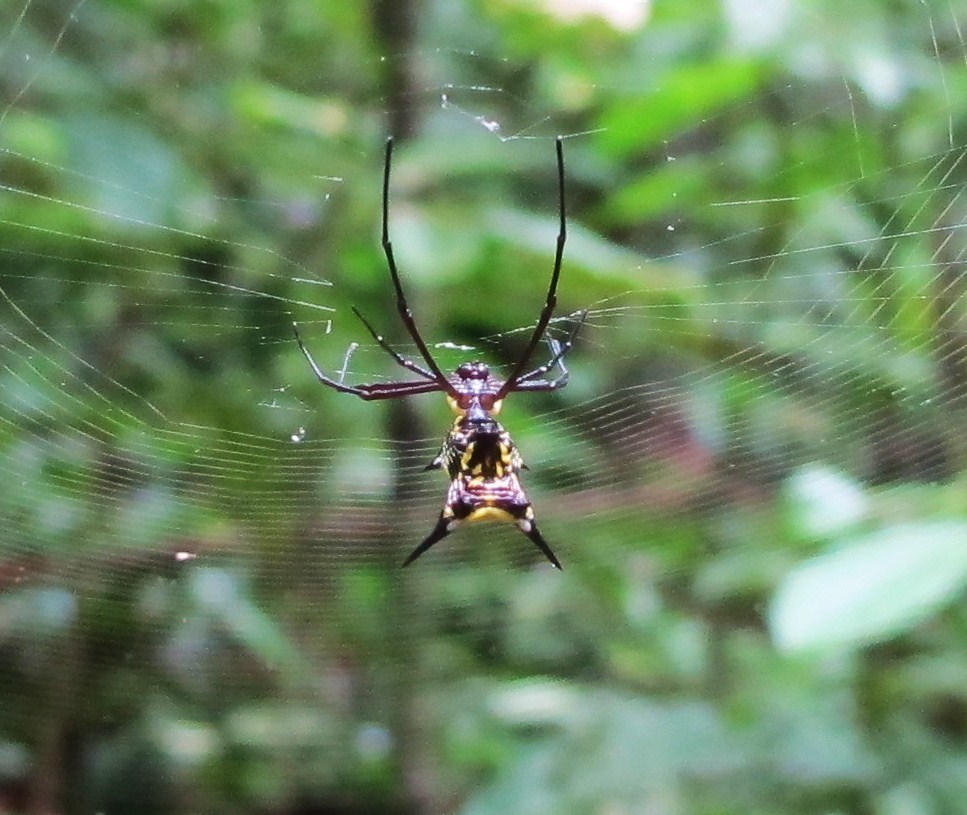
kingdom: Animalia
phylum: Arthropoda
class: Arachnida
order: Araneae
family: Araneidae
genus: Micrathena
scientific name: Micrathena miles
